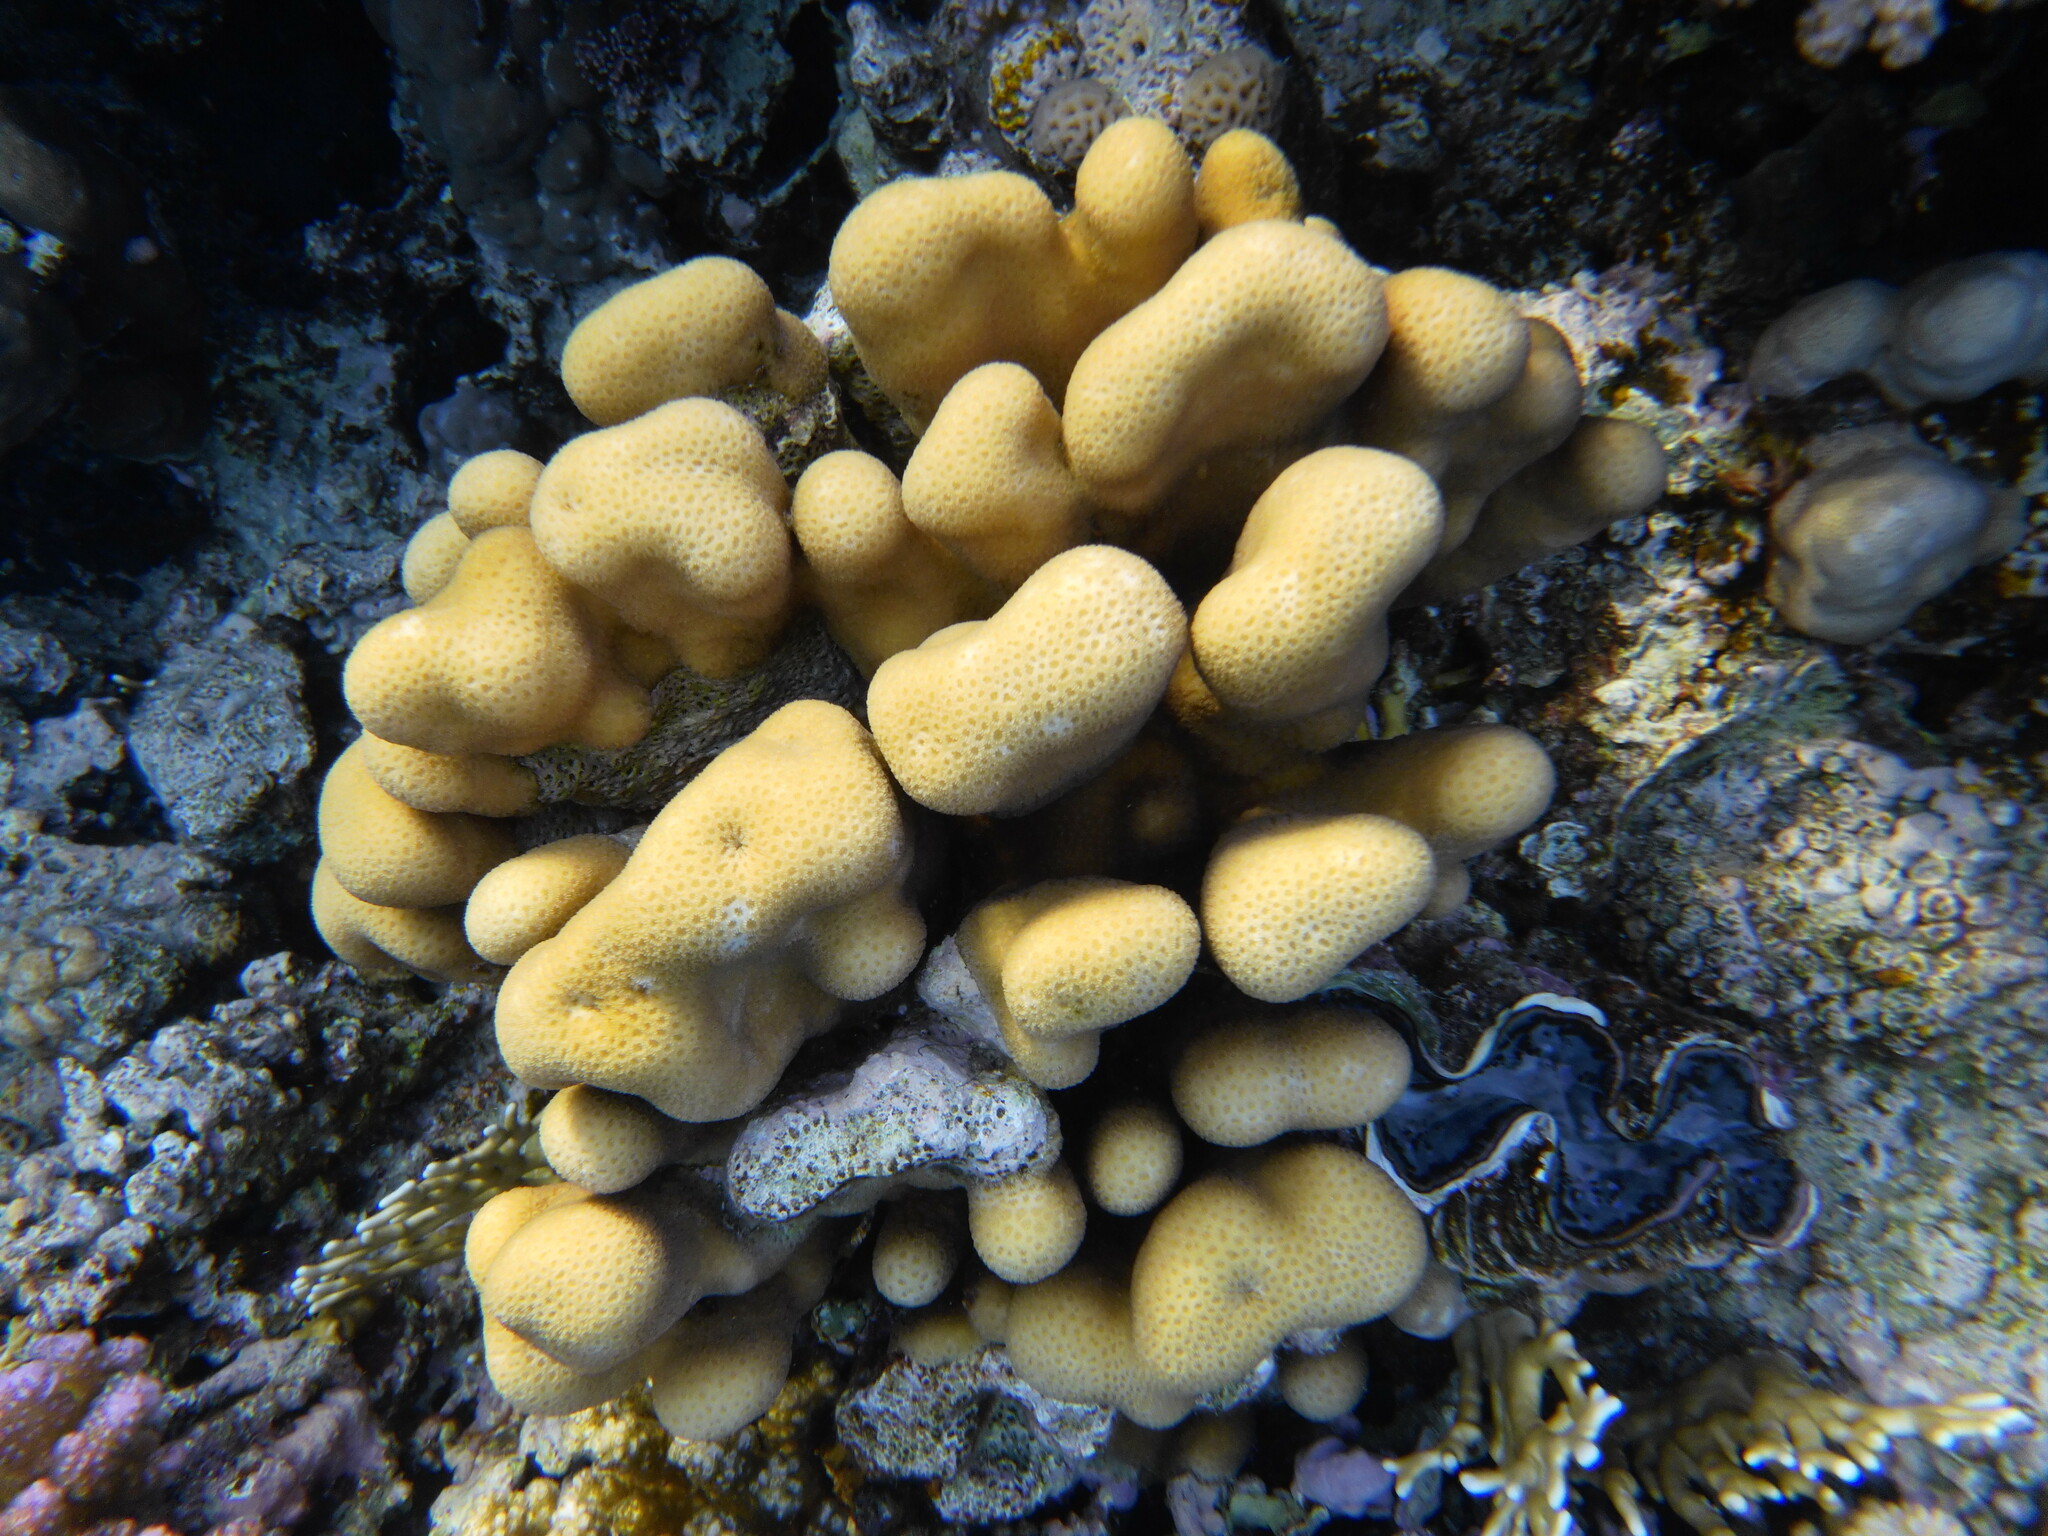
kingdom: Animalia
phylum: Cnidaria
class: Anthozoa
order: Scleractinia
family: Merulinidae
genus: Goniastrea
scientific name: Goniastrea stelligera
